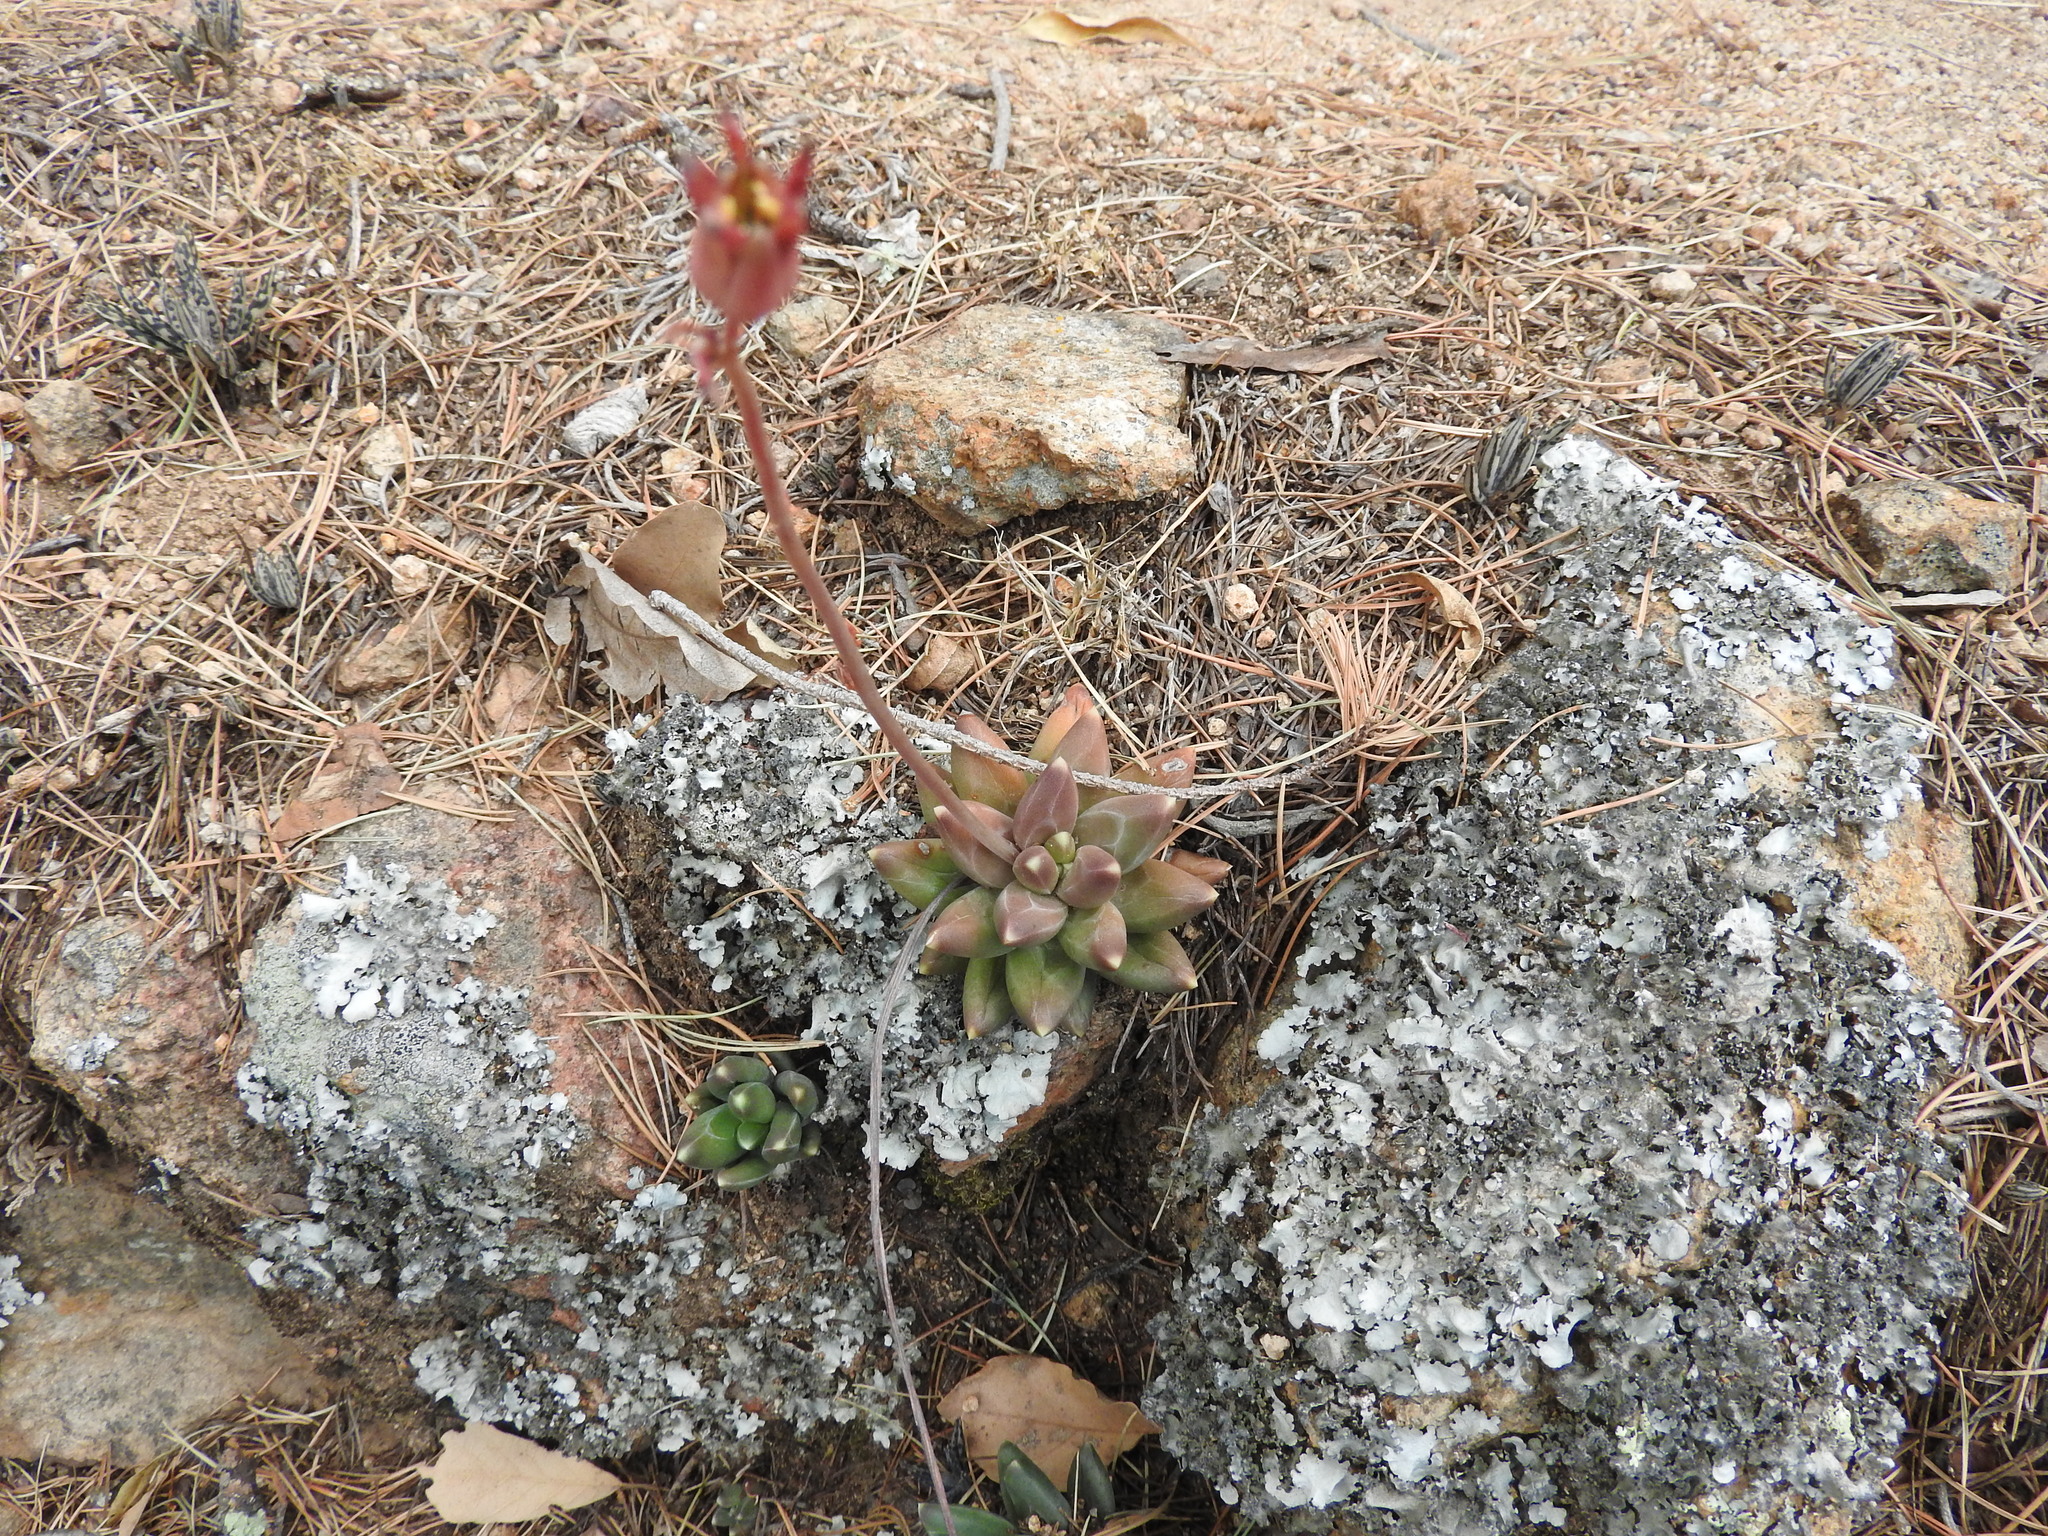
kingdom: Plantae
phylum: Tracheophyta
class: Magnoliopsida
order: Saxifragales
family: Crassulaceae
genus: Pachyphytum
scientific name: Pachyphytum compactum
